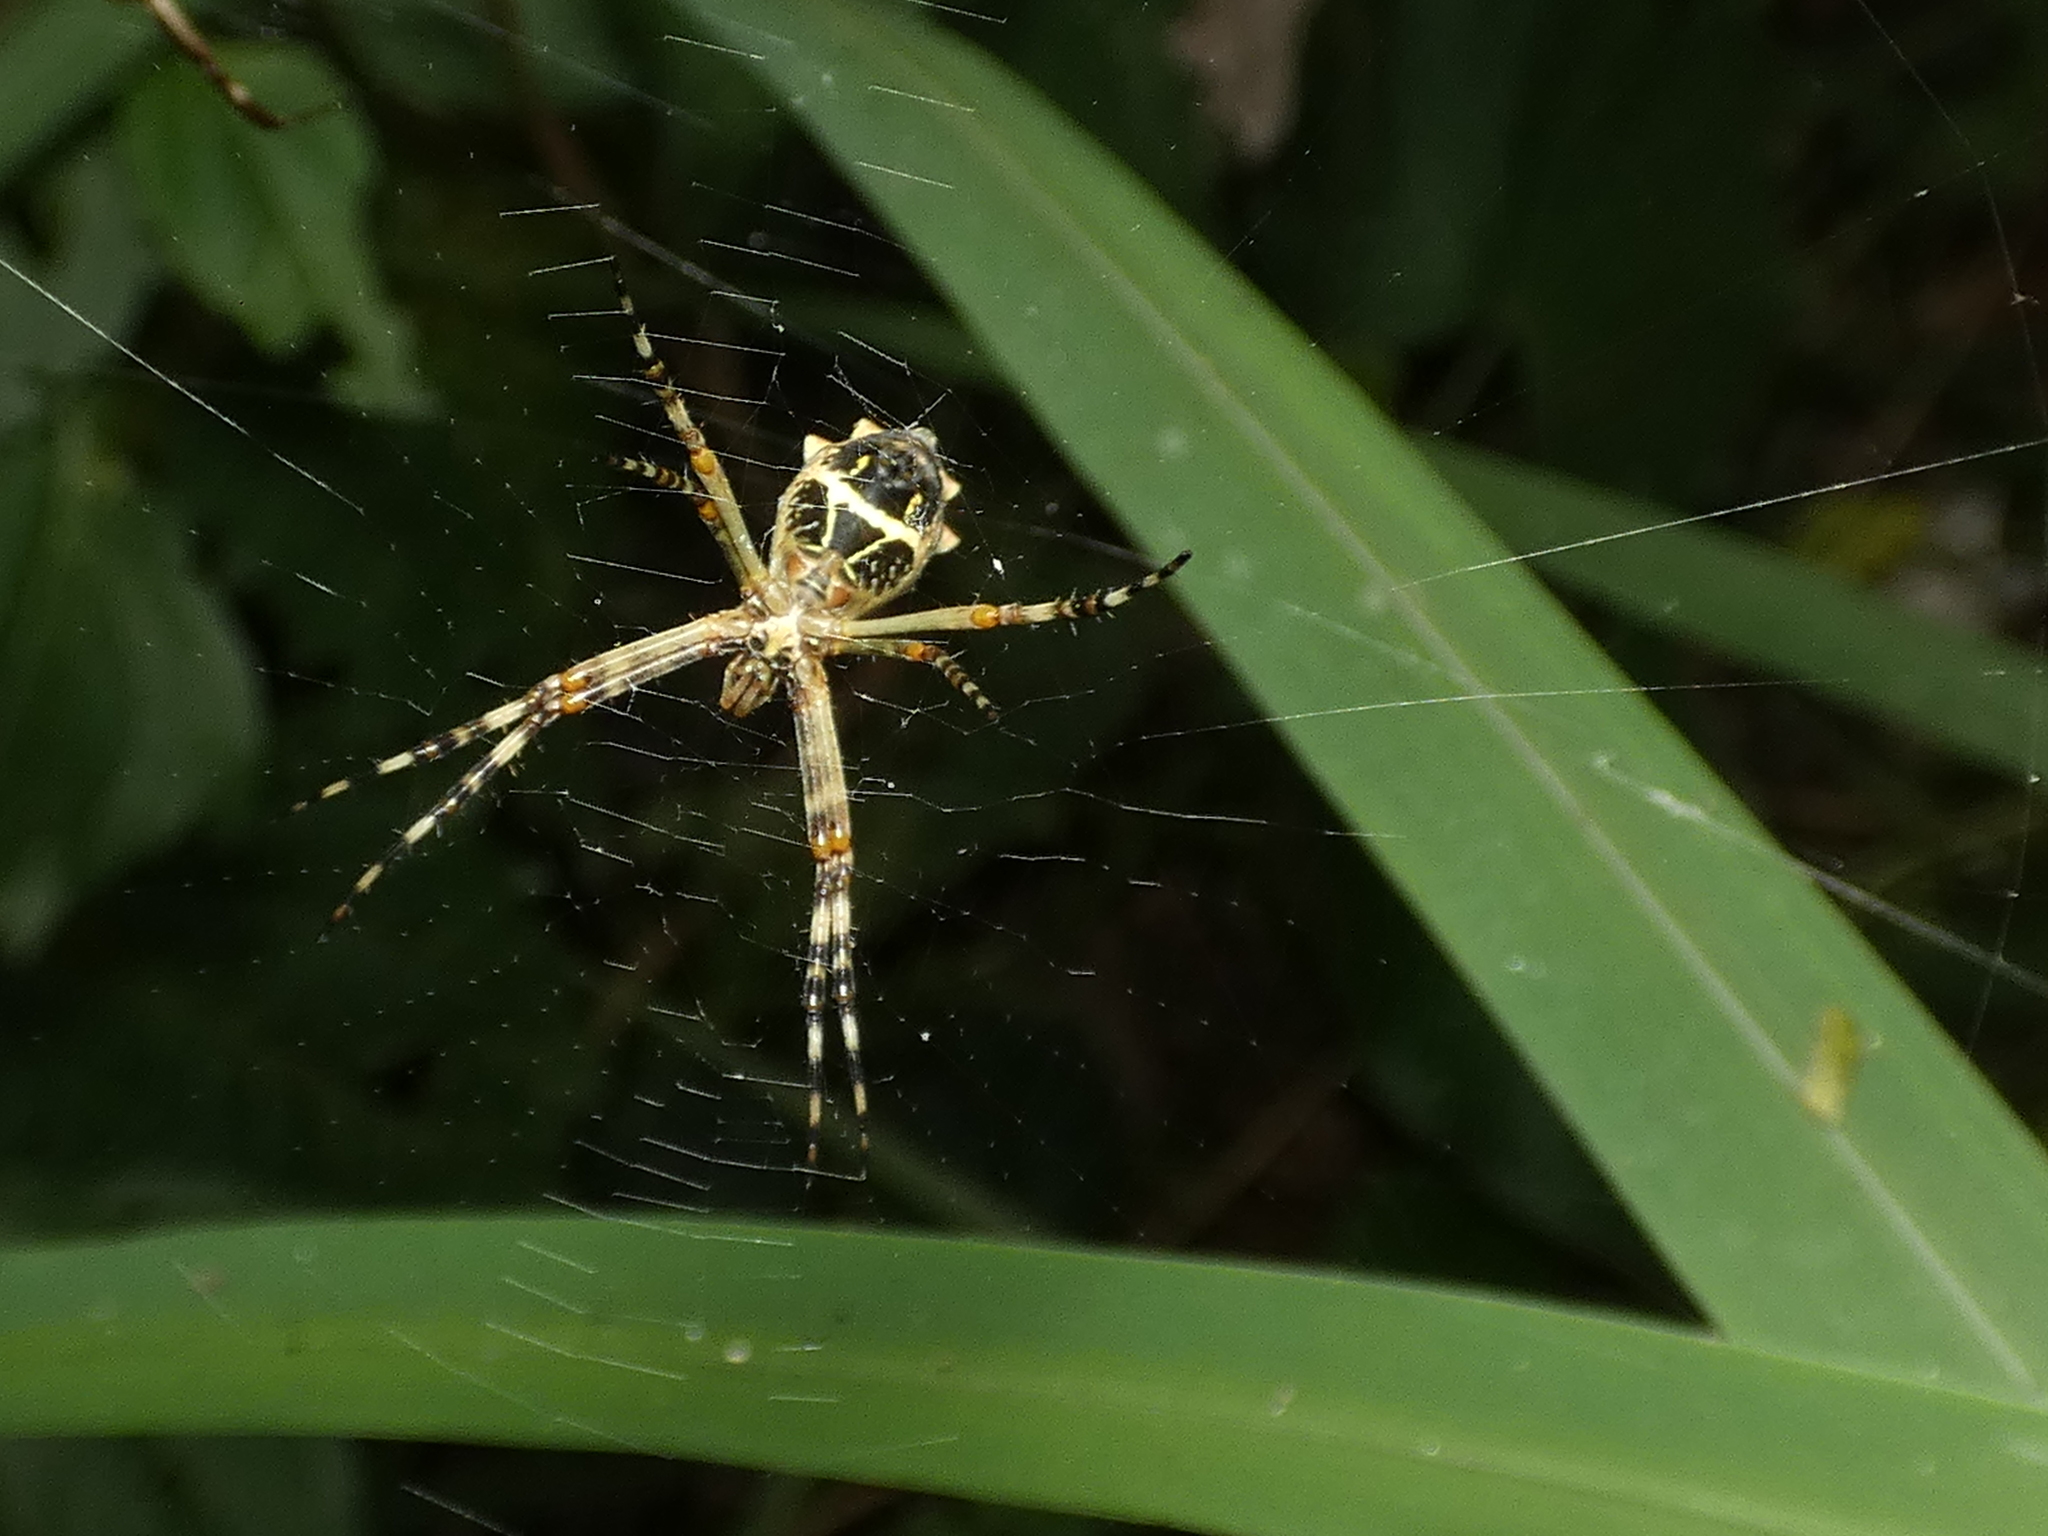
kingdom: Animalia
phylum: Arthropoda
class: Arachnida
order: Araneae
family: Araneidae
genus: Argiope
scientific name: Argiope argentata
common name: Orb weavers
